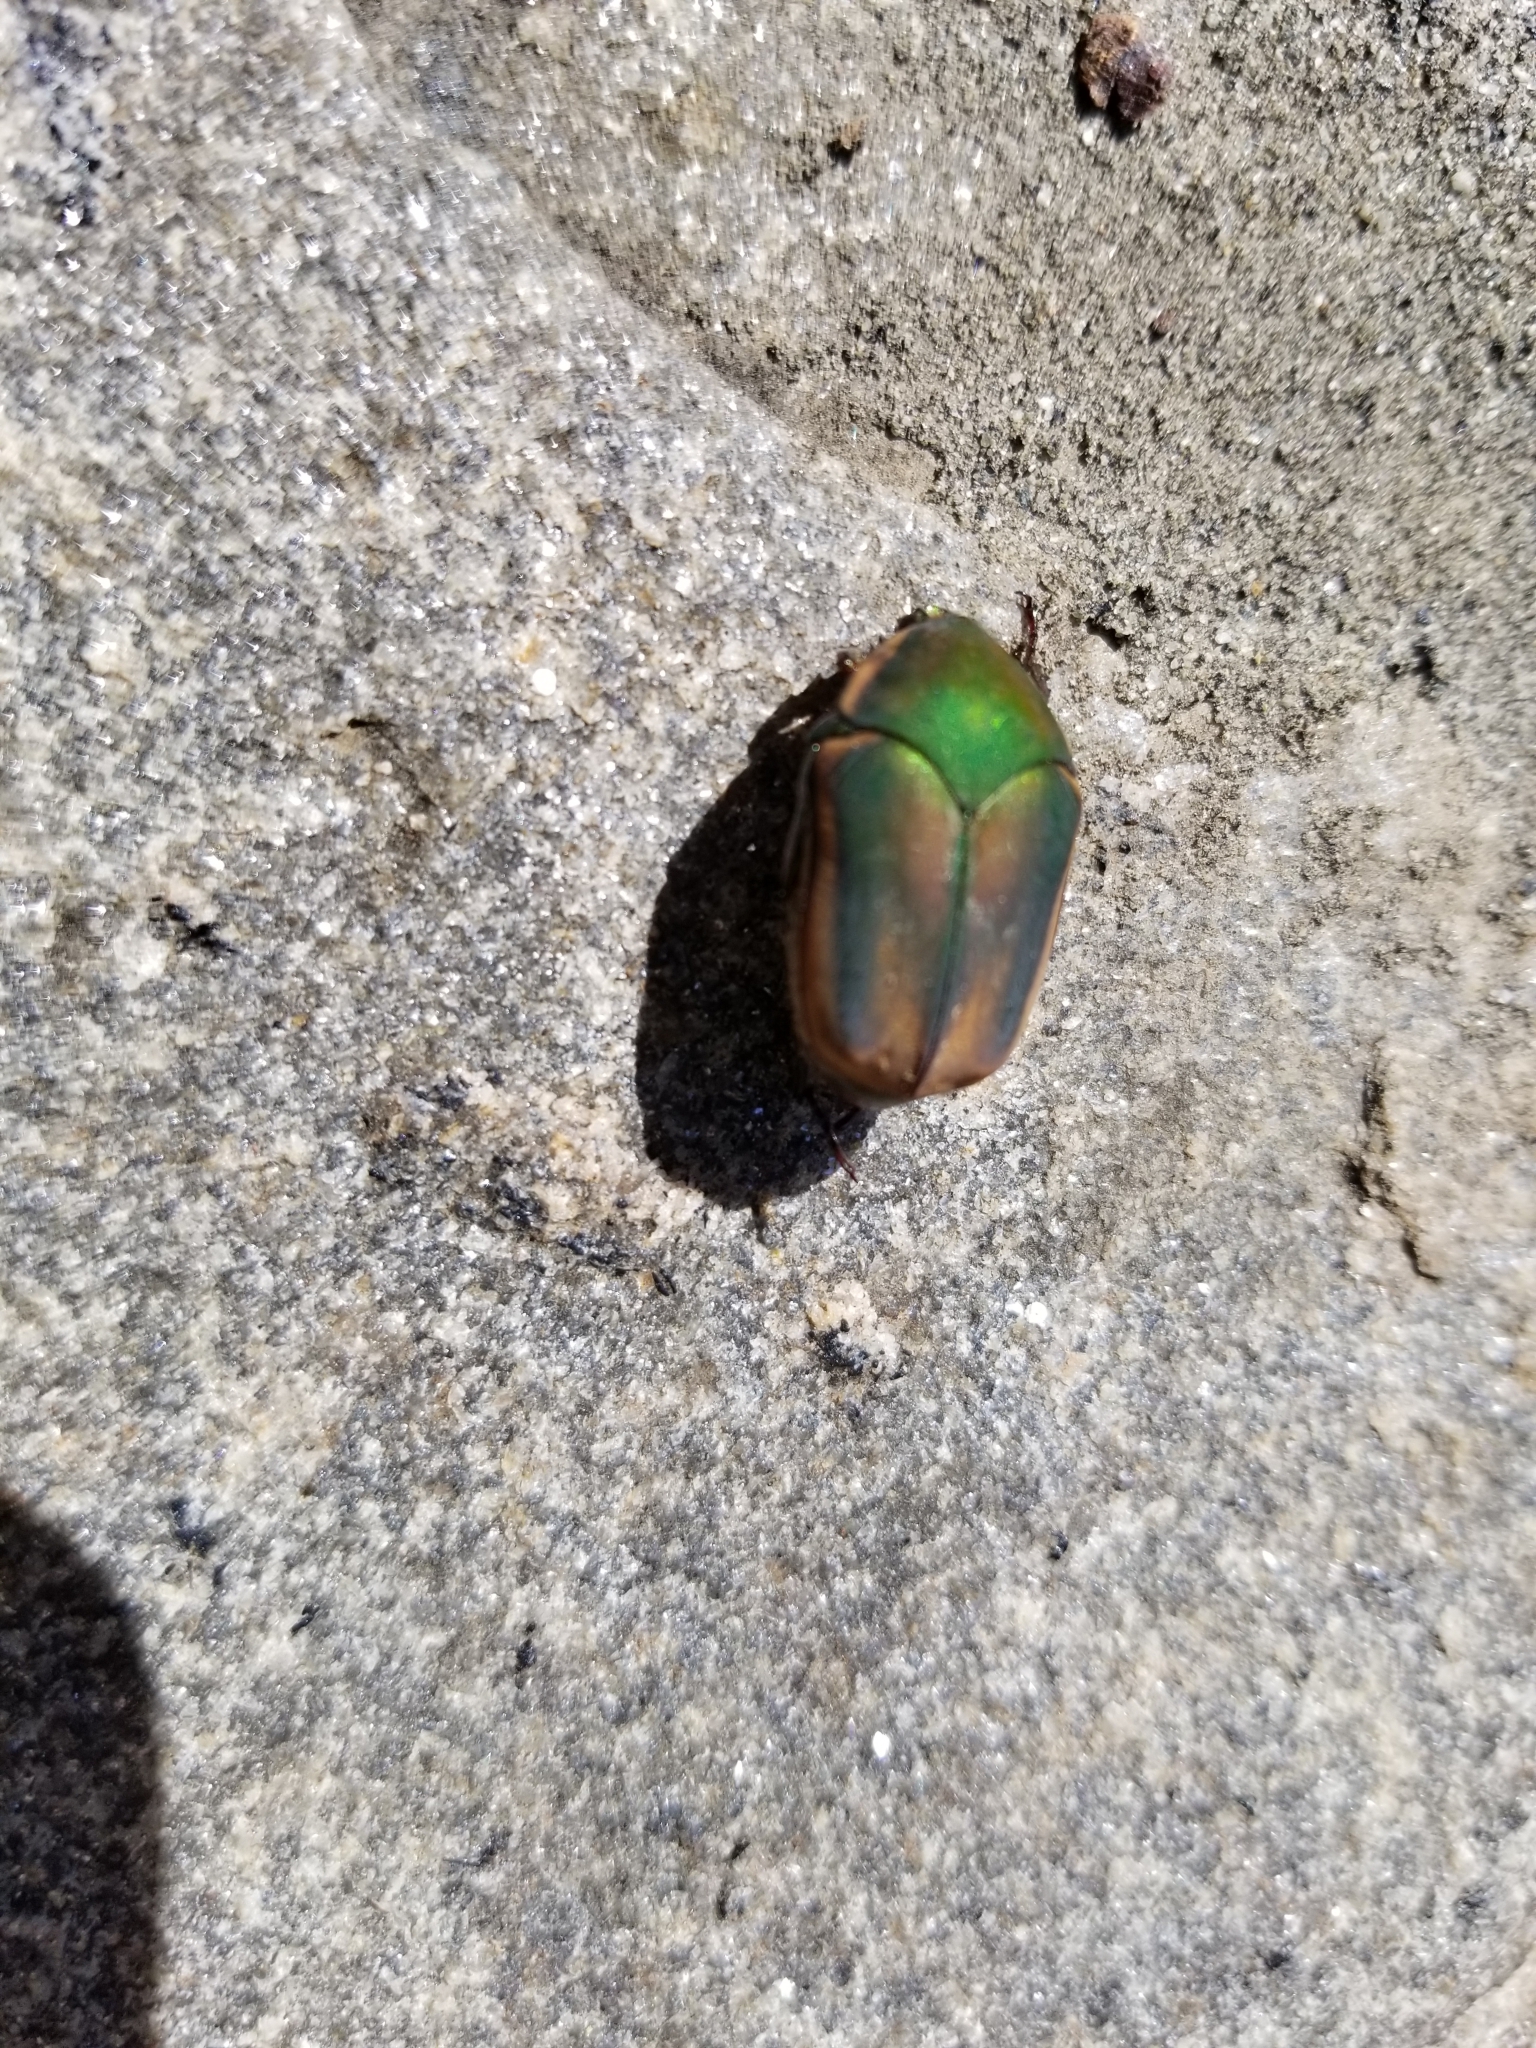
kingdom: Animalia
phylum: Arthropoda
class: Insecta
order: Coleoptera
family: Scarabaeidae
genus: Cotinis
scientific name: Cotinis nitida
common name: Common green june beetle
